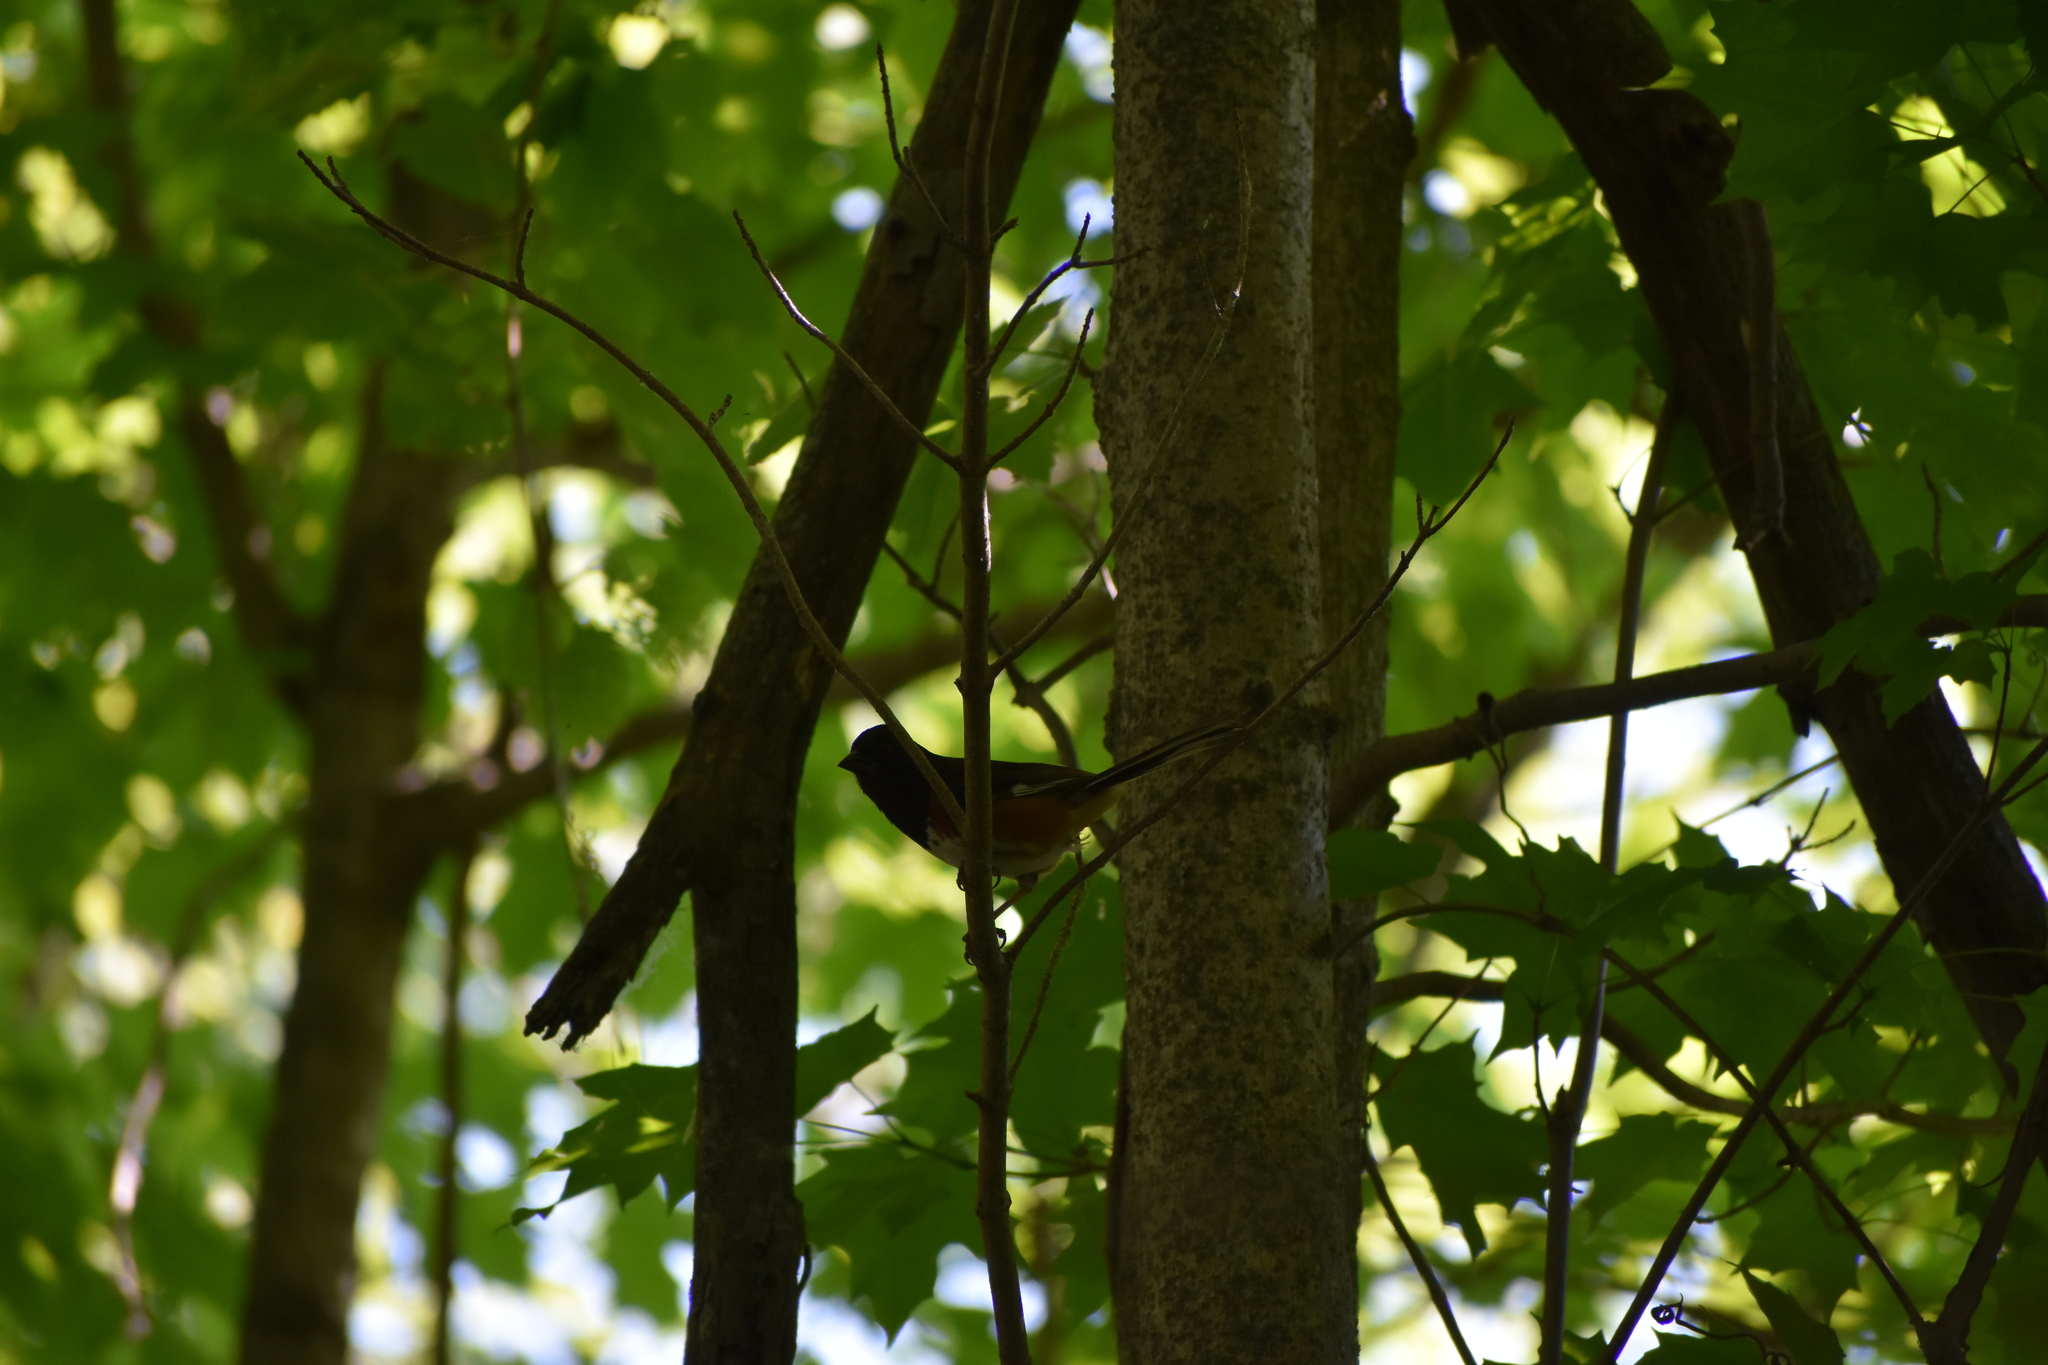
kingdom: Animalia
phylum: Chordata
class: Aves
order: Passeriformes
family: Passerellidae
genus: Pipilo
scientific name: Pipilo erythrophthalmus
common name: Eastern towhee
